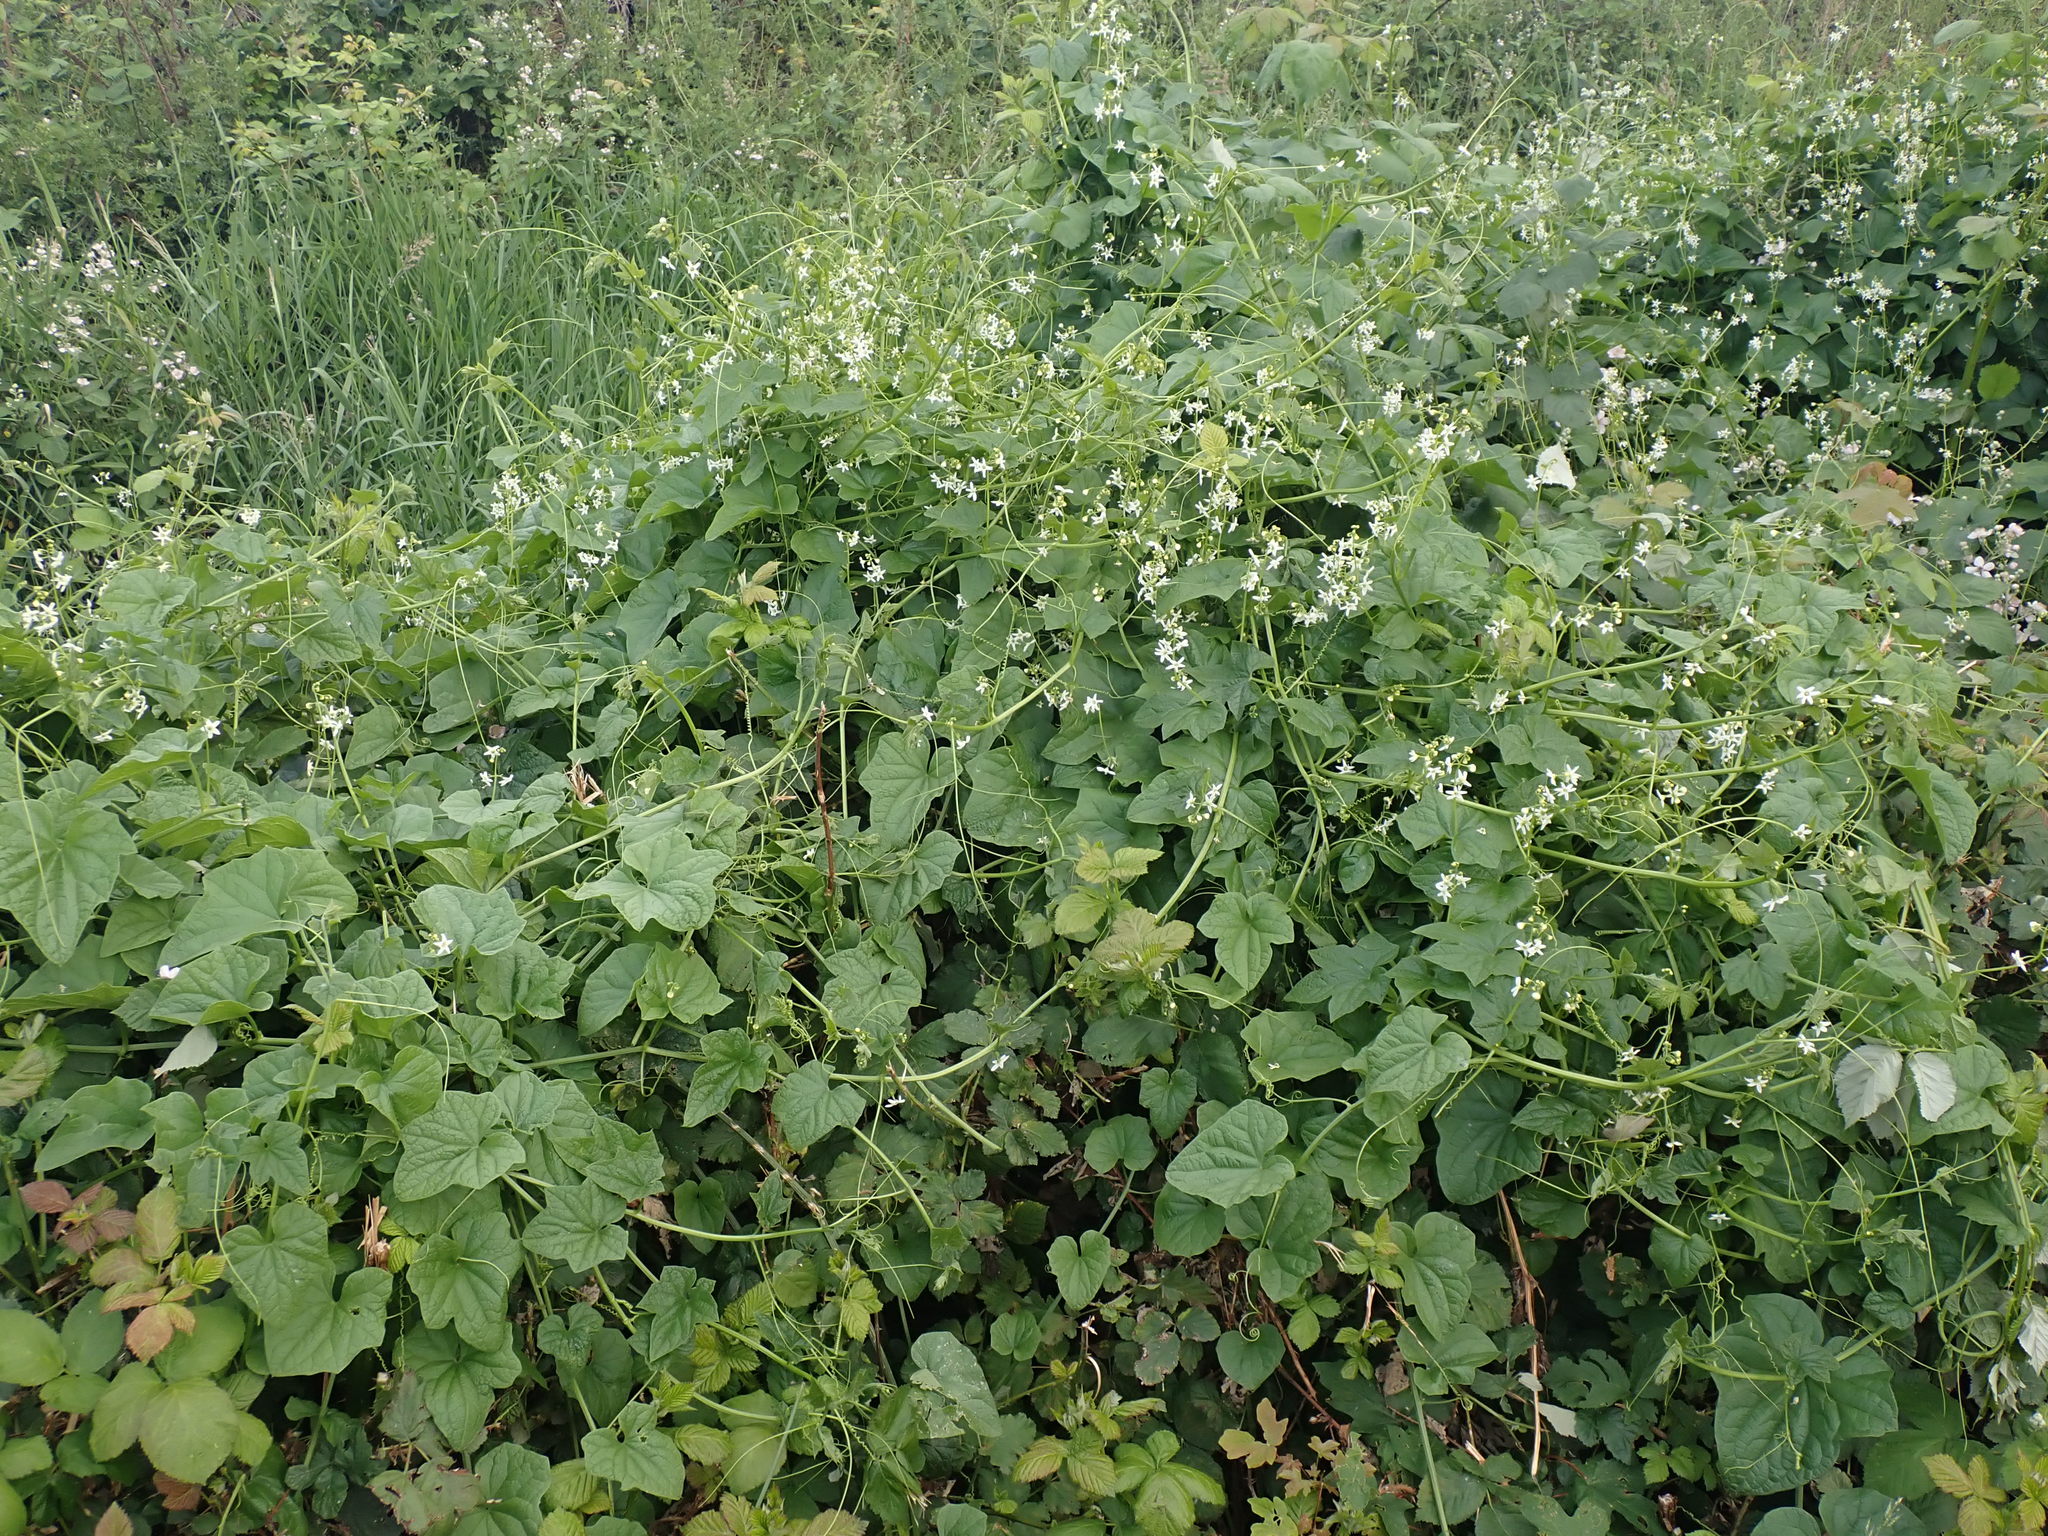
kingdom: Plantae
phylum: Tracheophyta
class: Magnoliopsida
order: Cucurbitales
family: Cucurbitaceae
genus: Marah
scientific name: Marah oregana
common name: Coastal manroot
